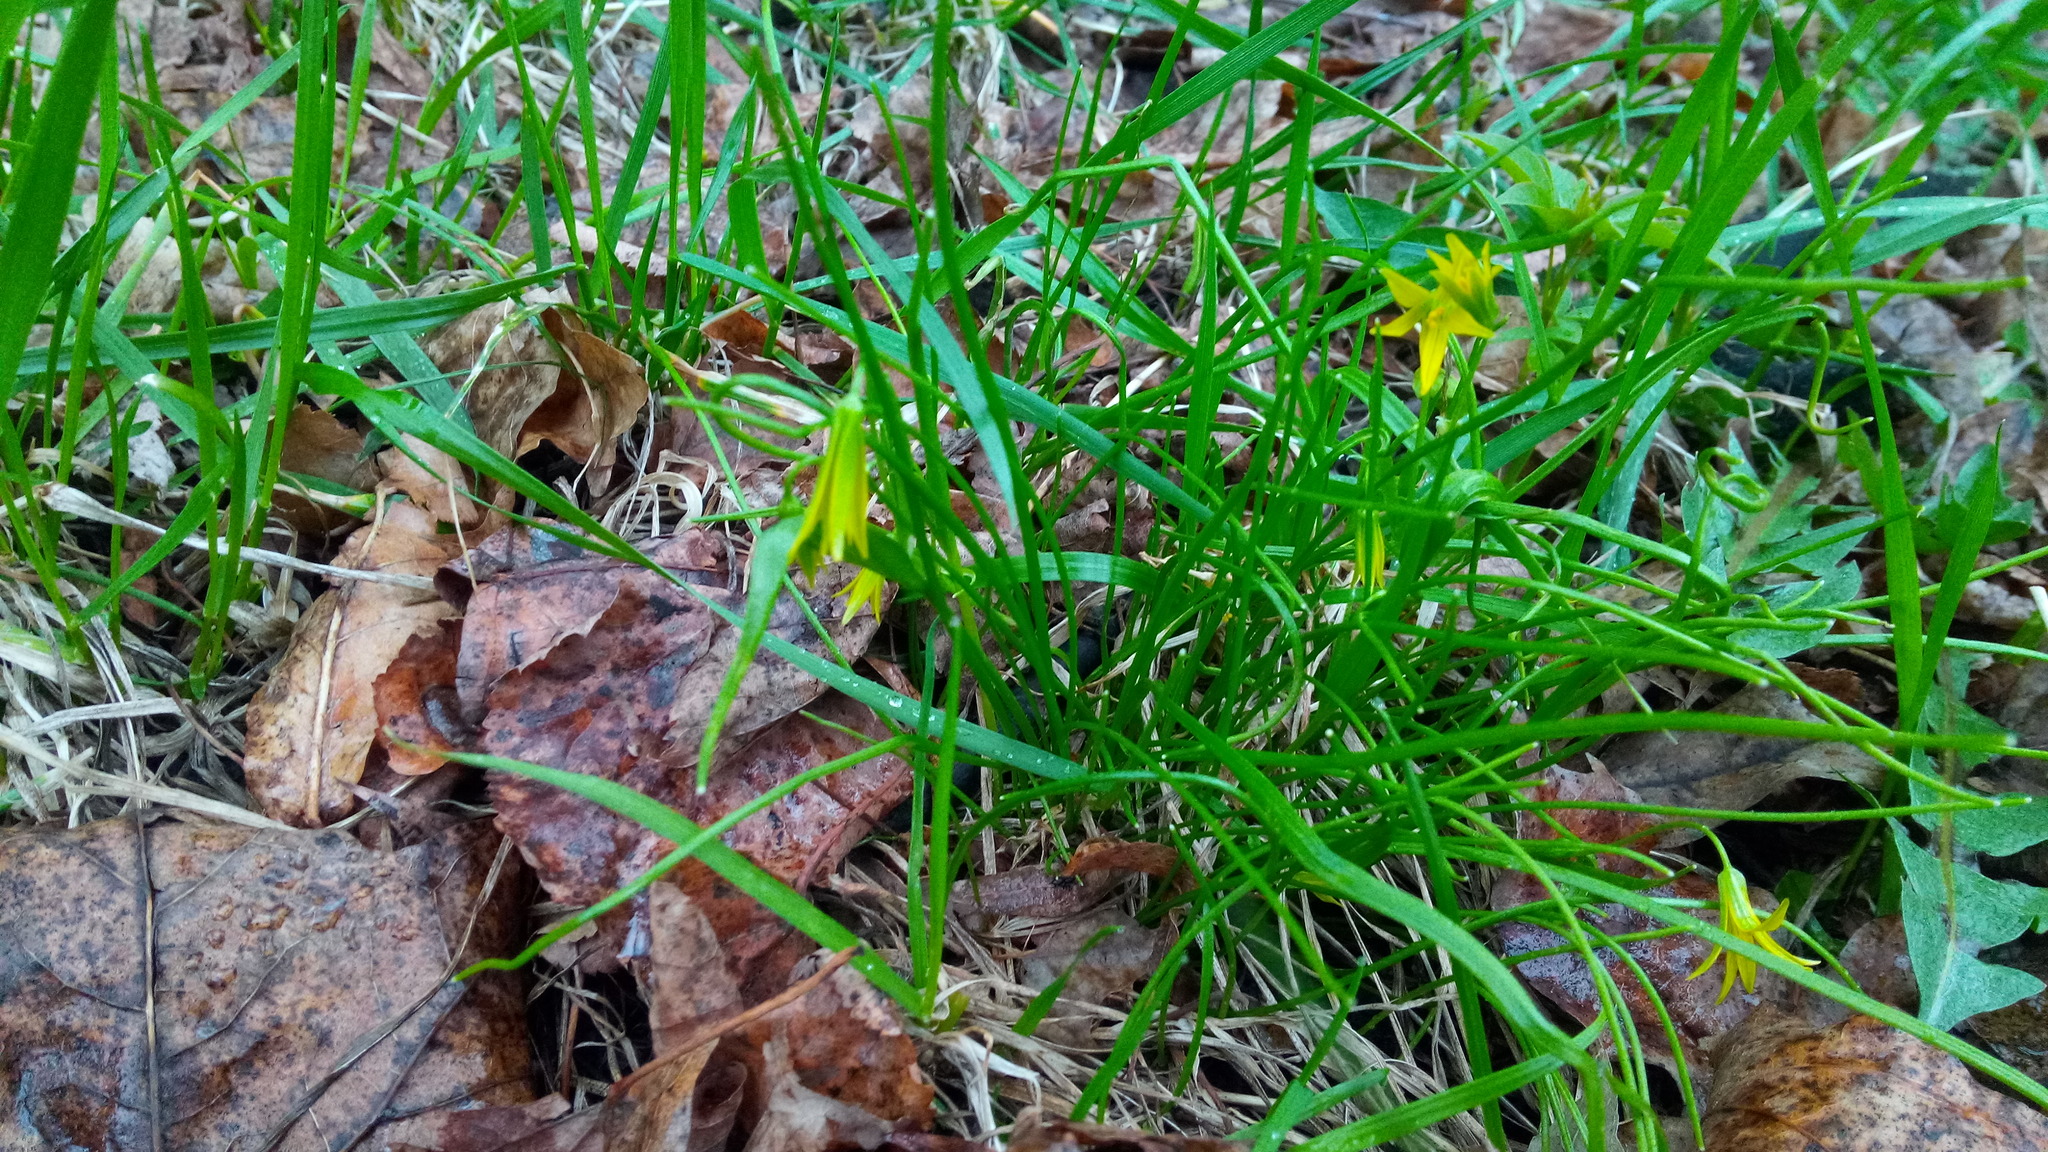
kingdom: Plantae
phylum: Tracheophyta
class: Liliopsida
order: Liliales
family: Liliaceae
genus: Gagea
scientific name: Gagea minima
